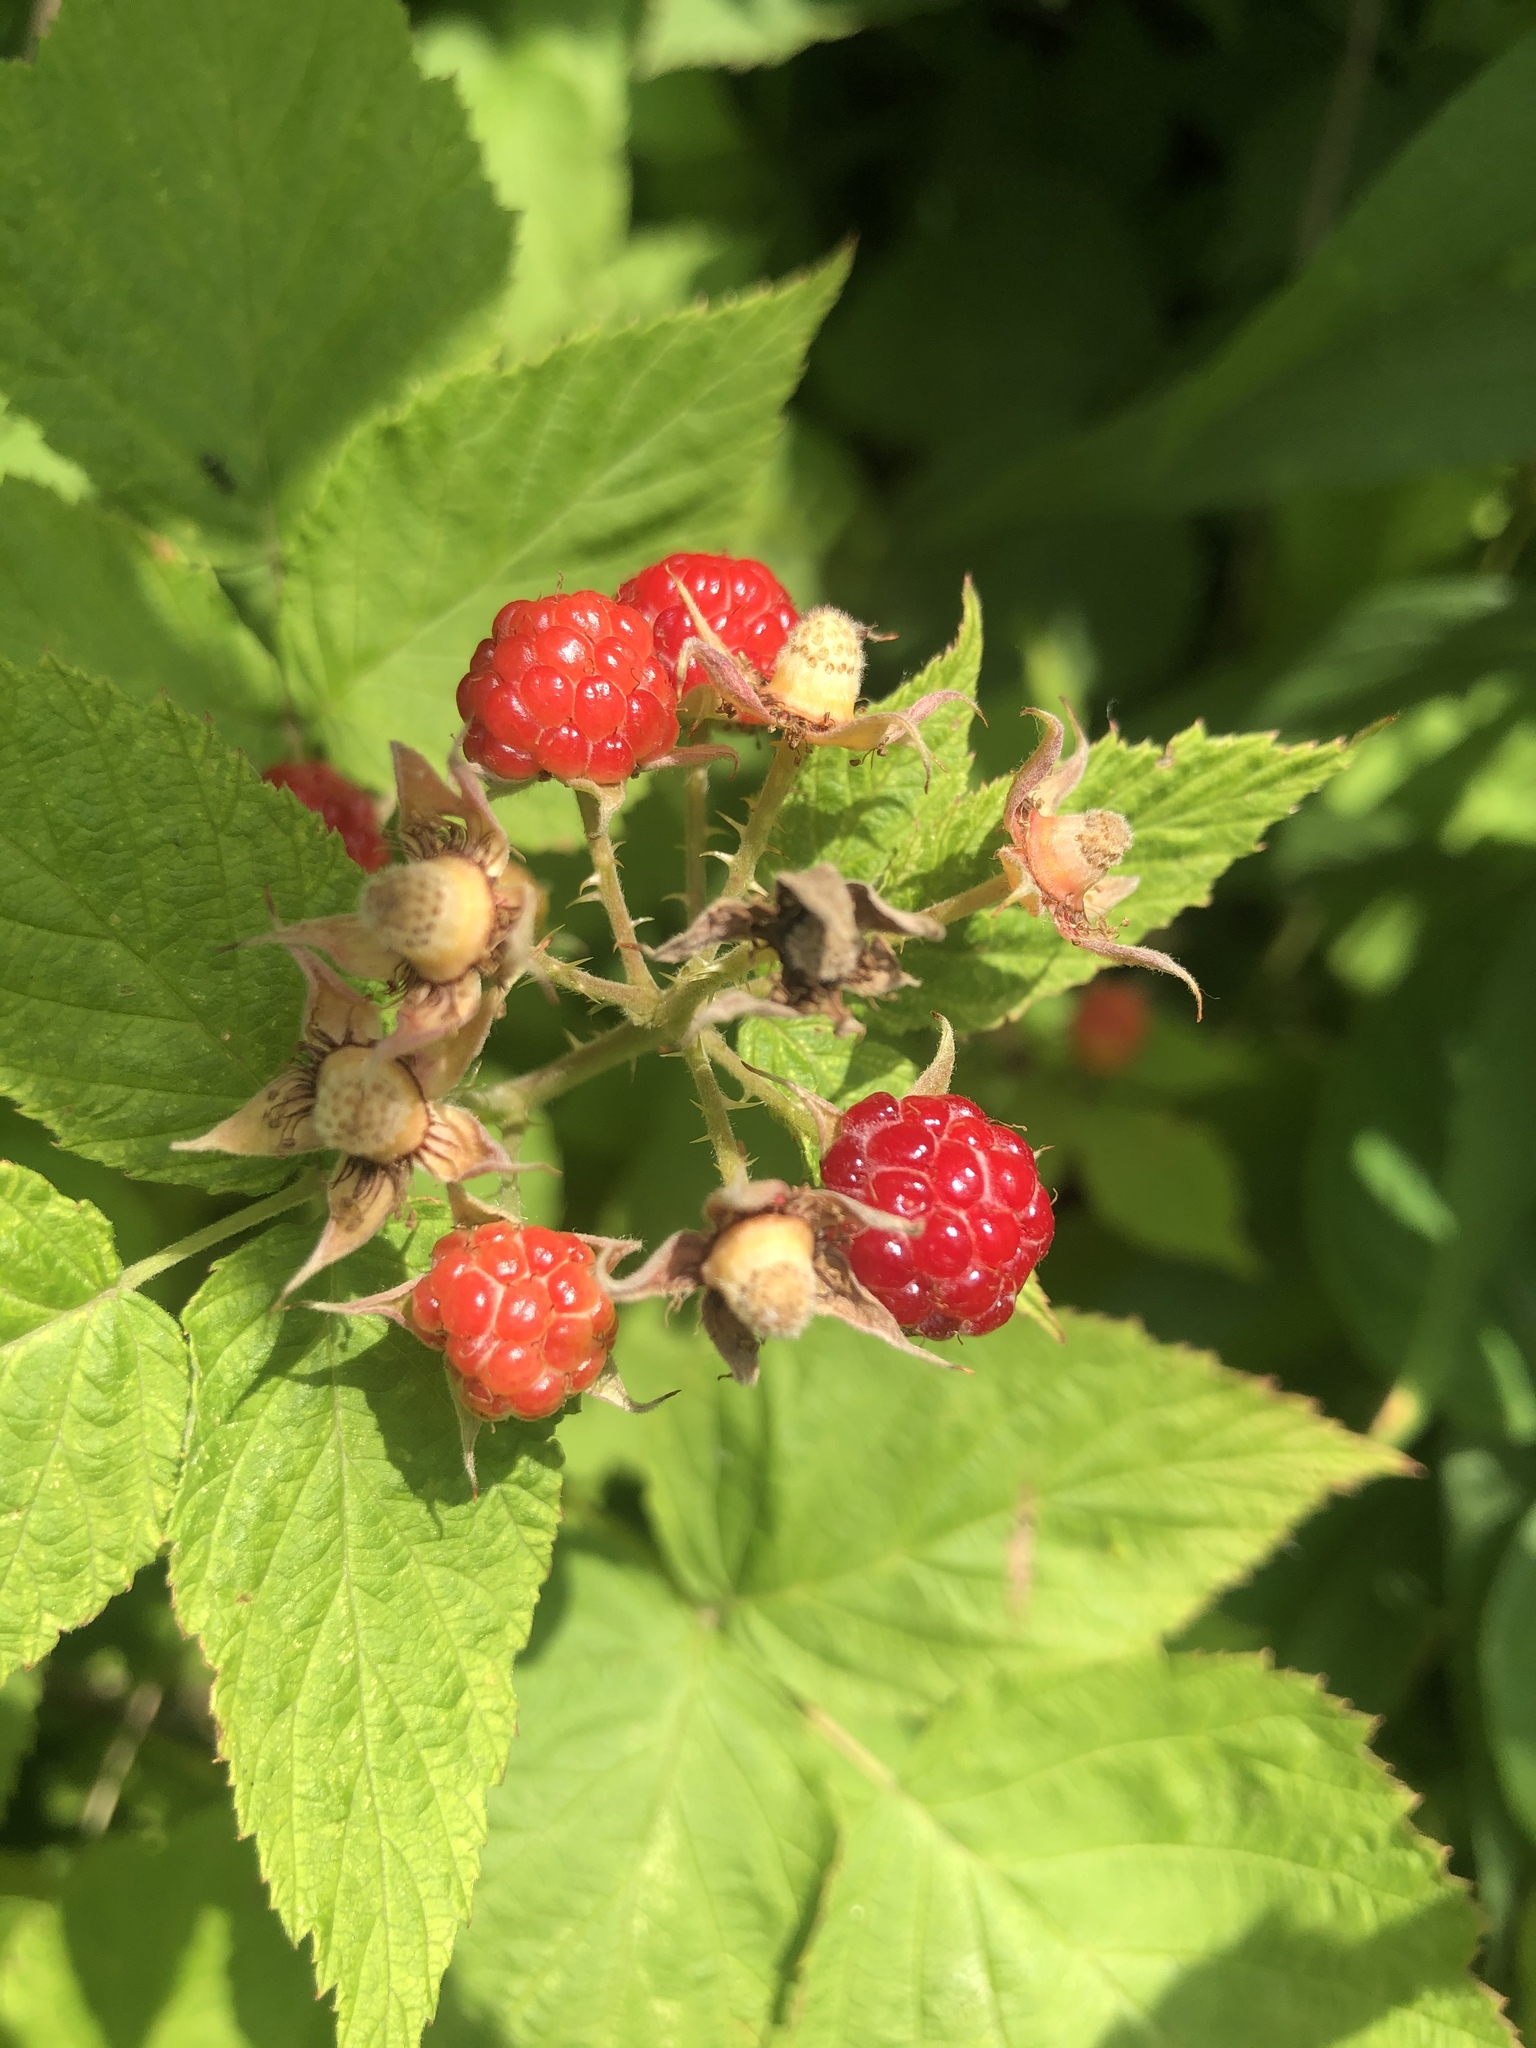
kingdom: Plantae
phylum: Tracheophyta
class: Magnoliopsida
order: Rosales
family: Rosaceae
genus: Rubus
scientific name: Rubus occidentalis
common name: Black raspberry
